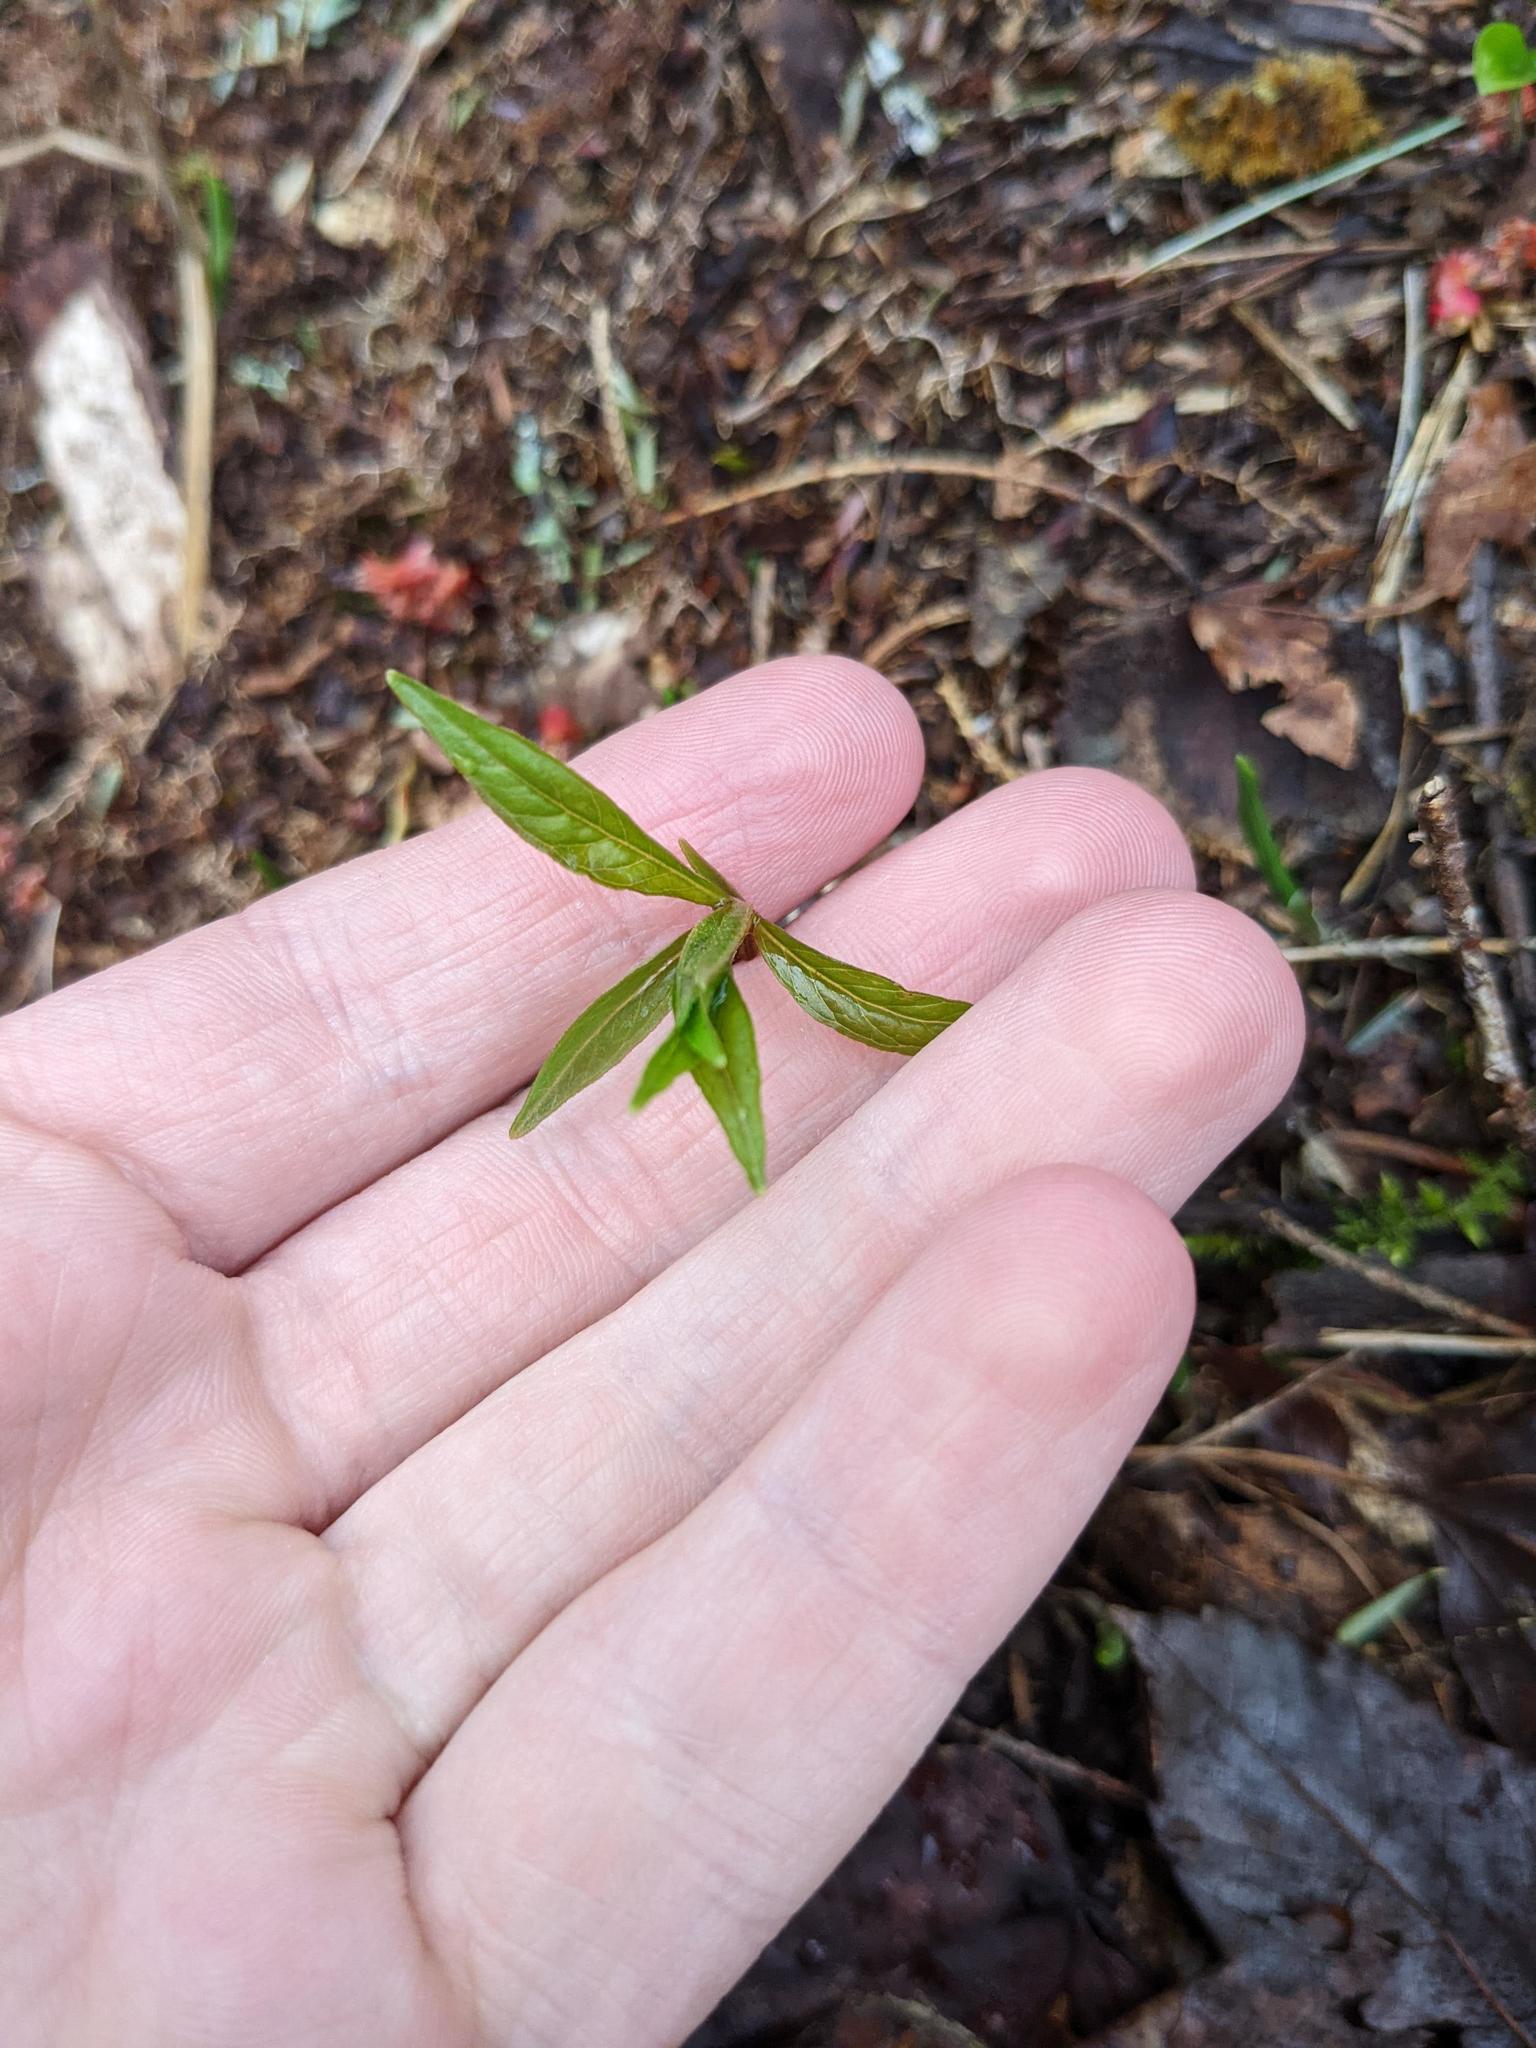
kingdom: Plantae
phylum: Tracheophyta
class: Magnoliopsida
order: Ericales
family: Primulaceae
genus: Lysimachia
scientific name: Lysimachia borealis
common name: American starflower
